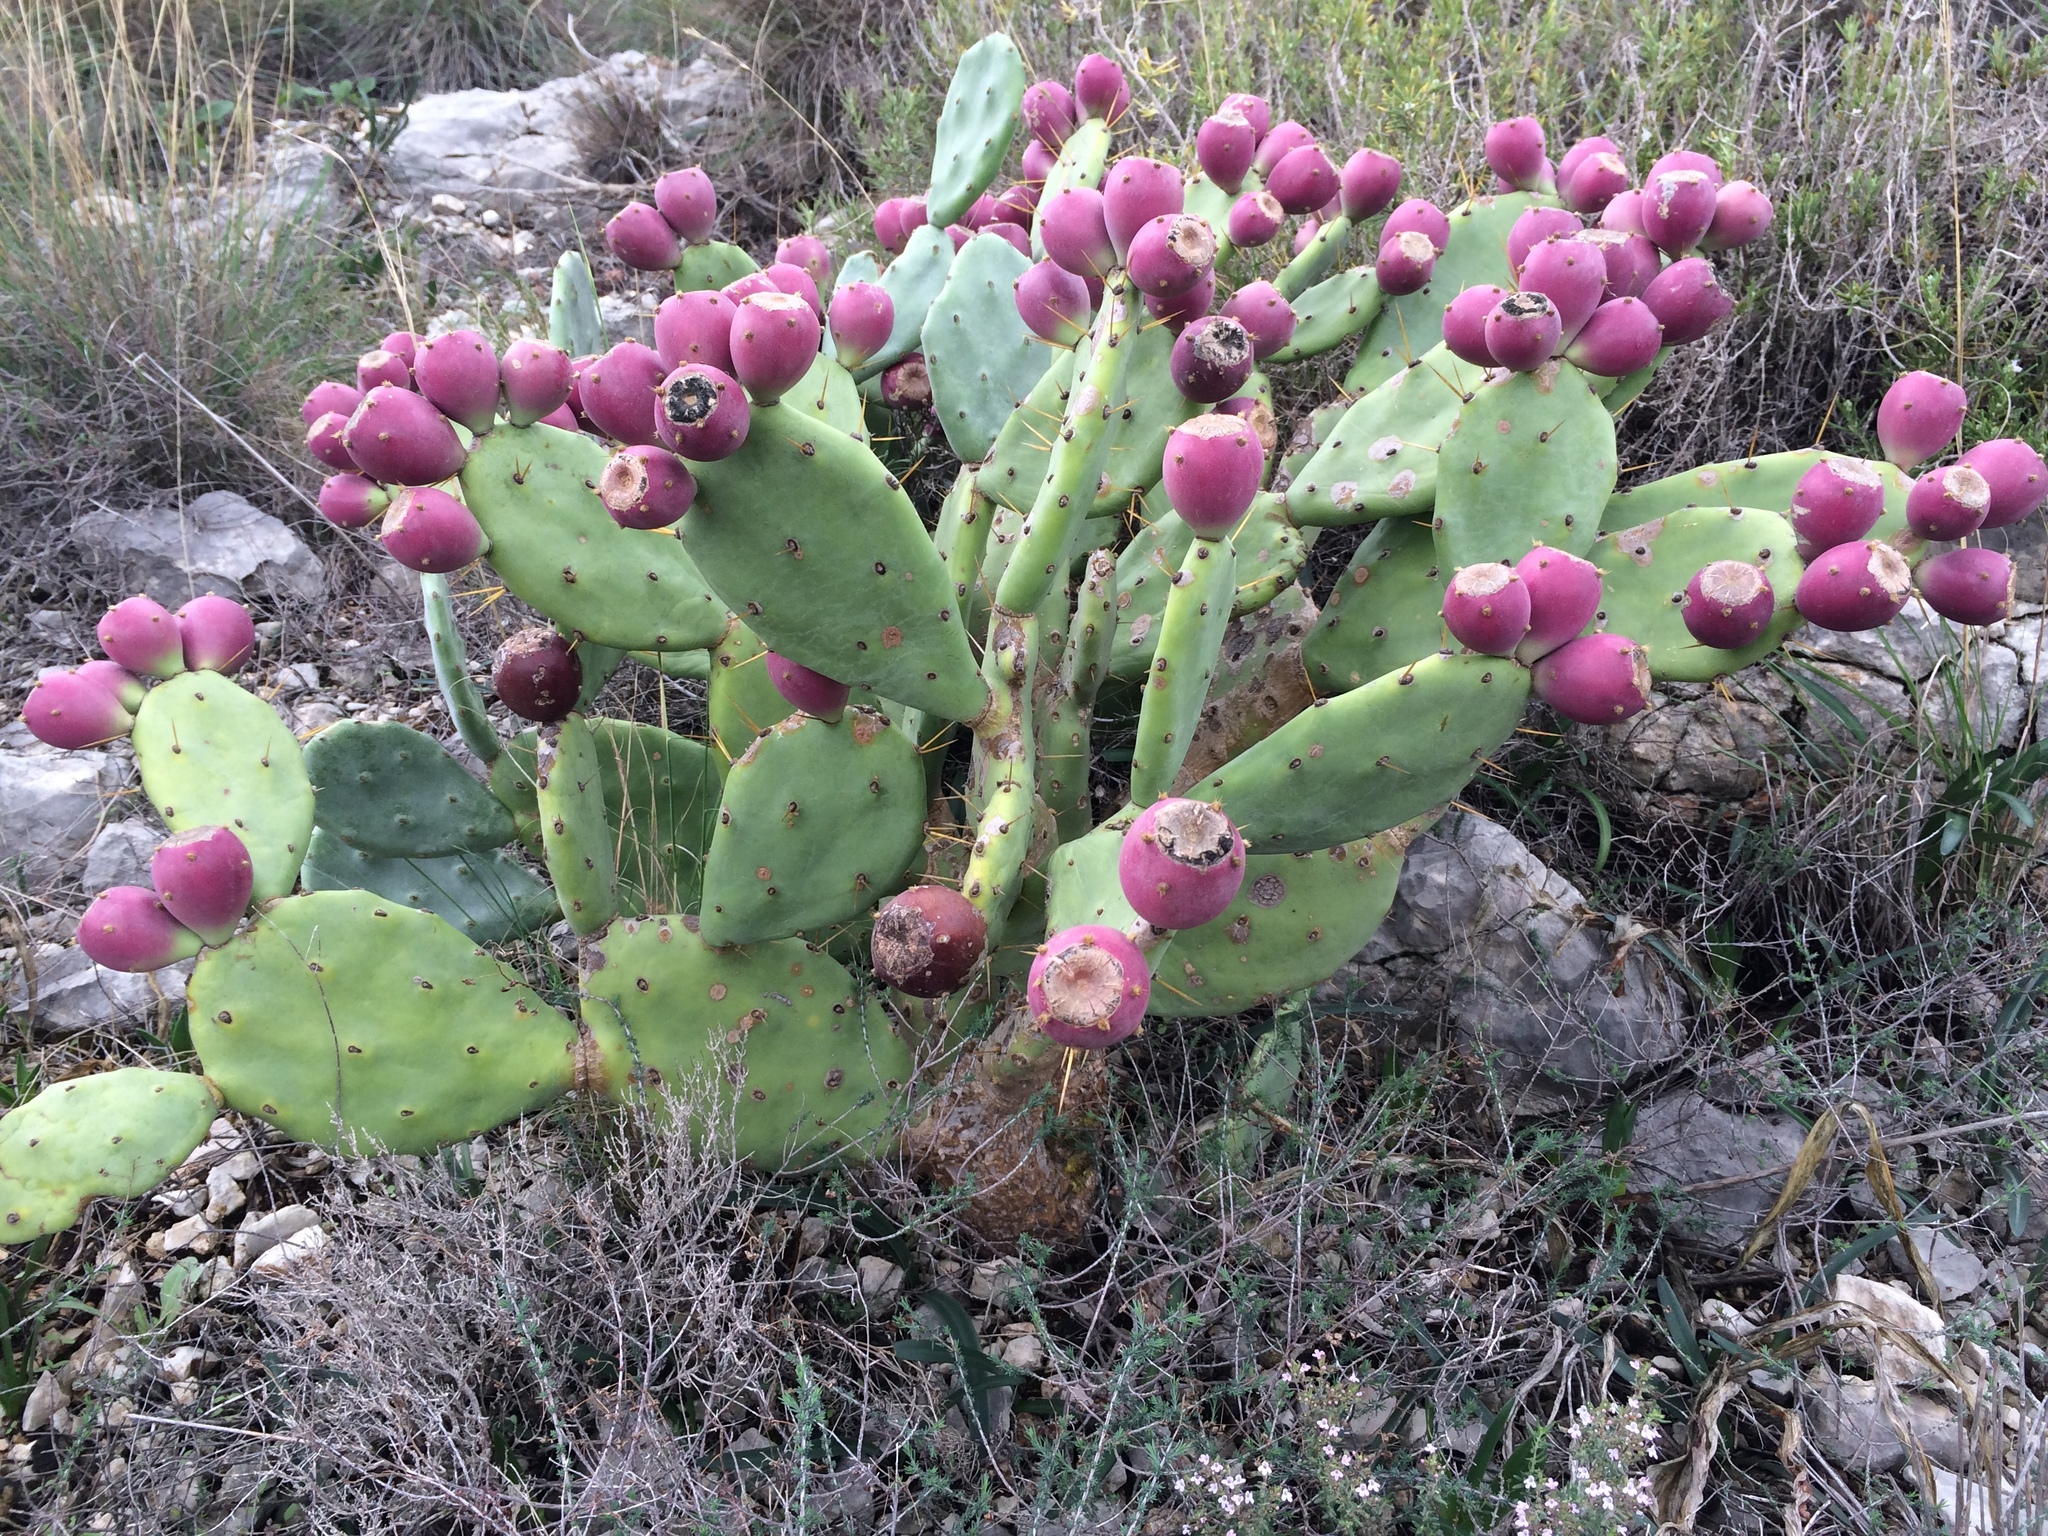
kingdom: Plantae
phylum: Tracheophyta
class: Magnoliopsida
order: Caryophyllales
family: Cactaceae
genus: Opuntia
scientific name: Opuntia stricta
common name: Erect pricklypear
